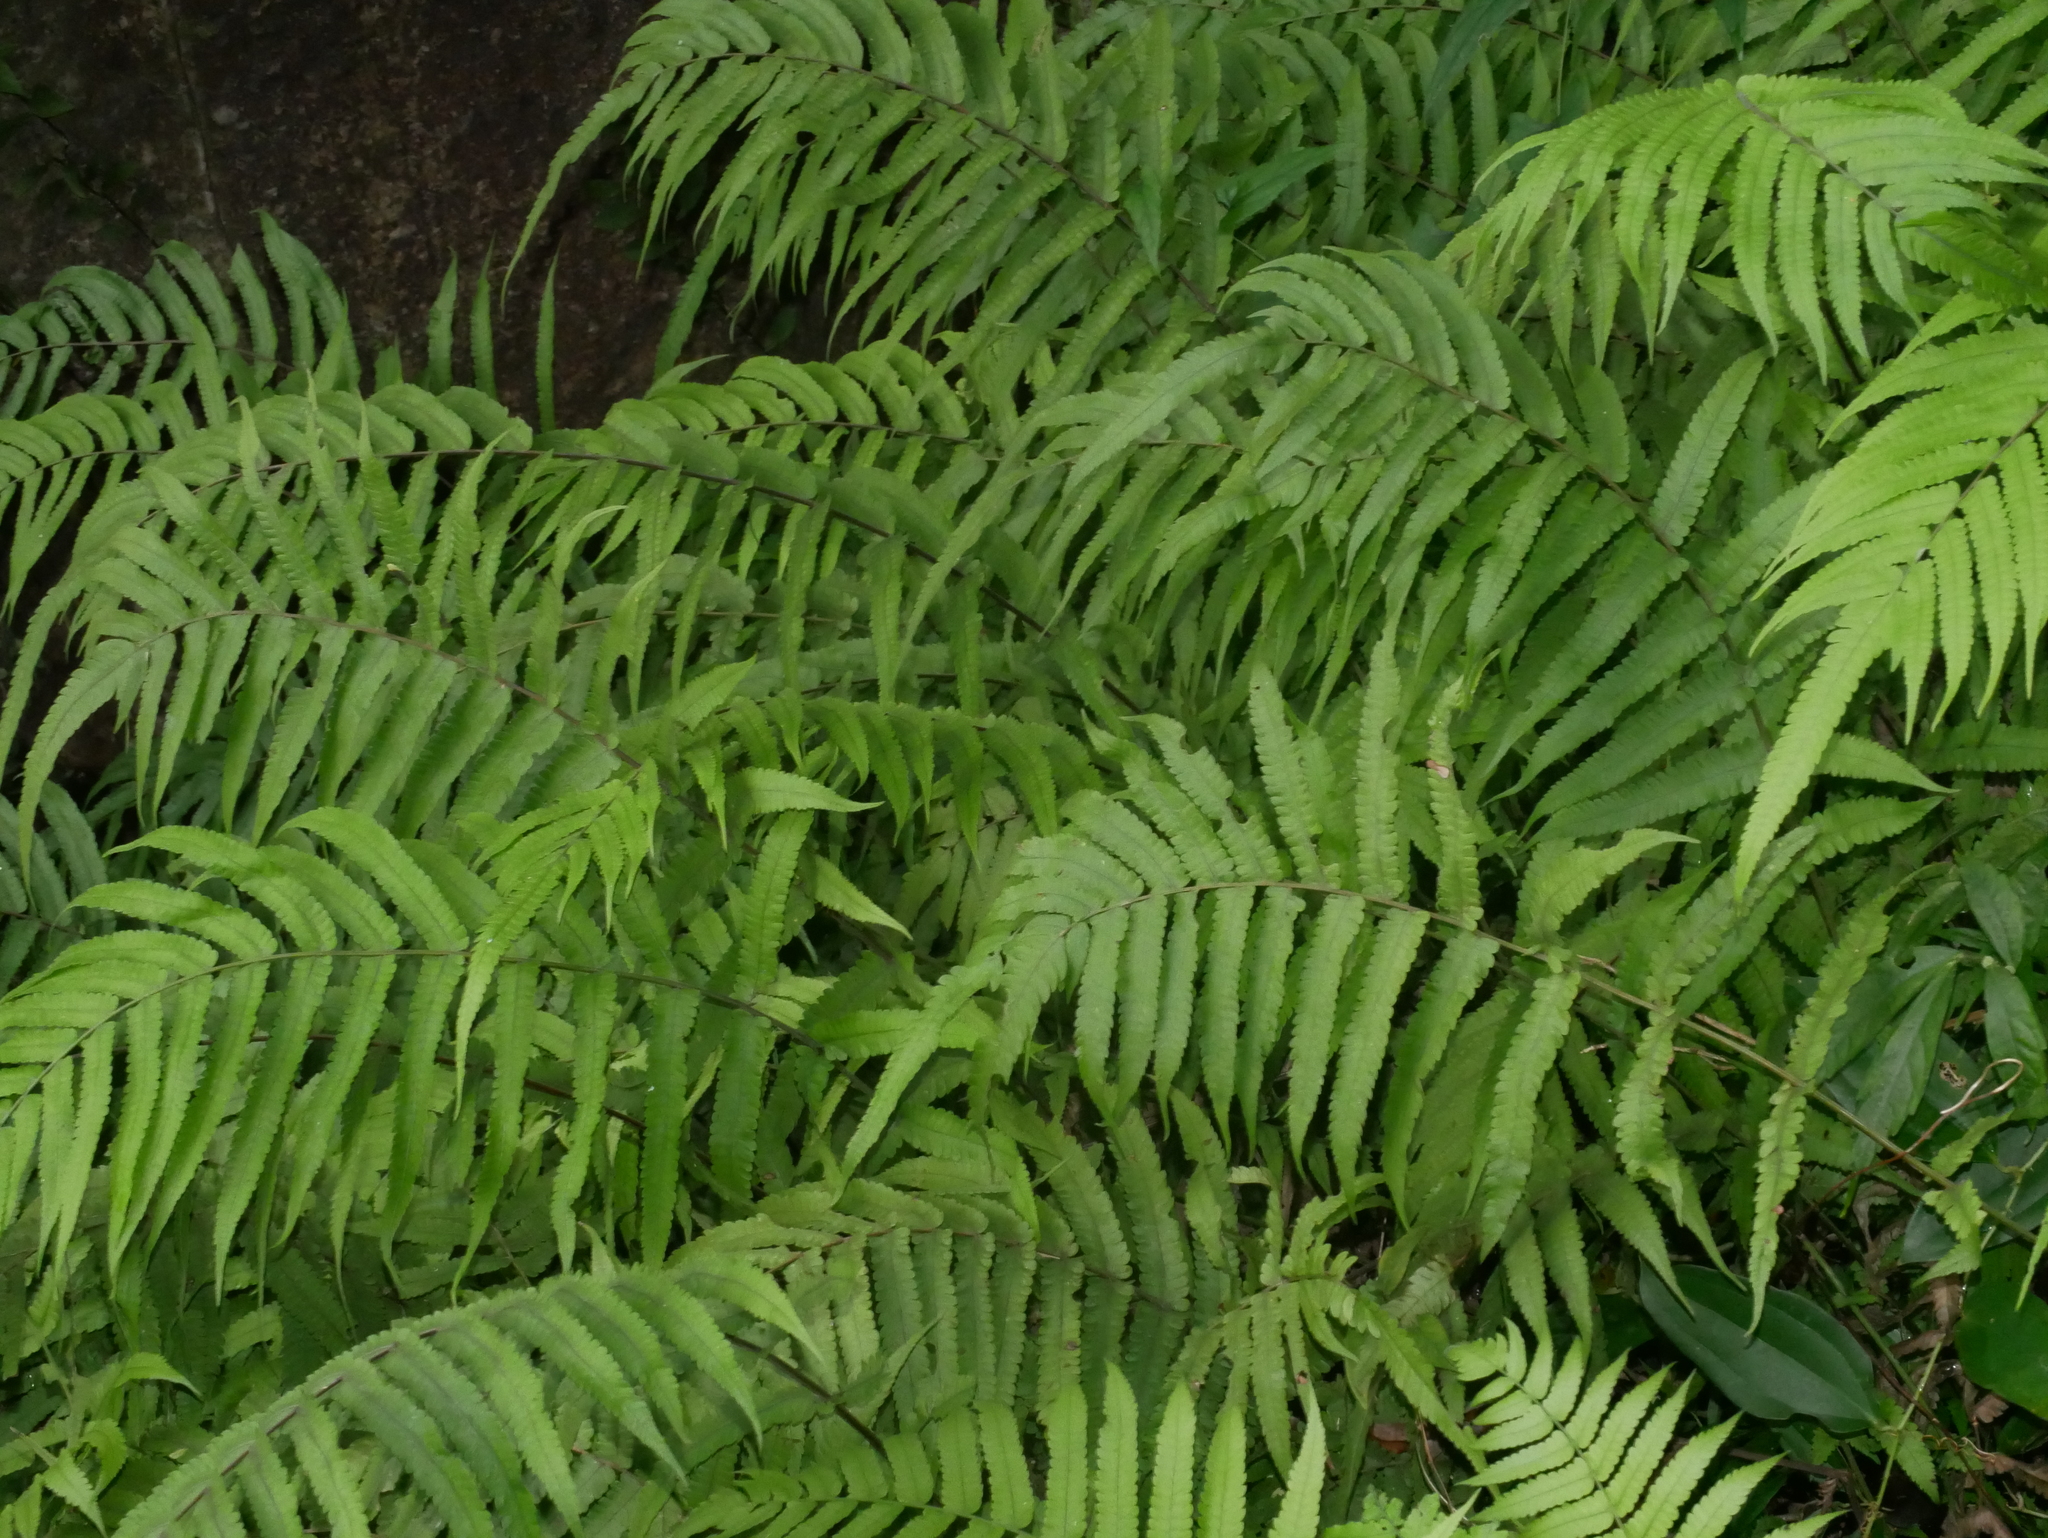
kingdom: Plantae
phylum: Tracheophyta
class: Polypodiopsida
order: Polypodiales
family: Thelypteridaceae
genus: Christella
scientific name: Christella jaculosa
